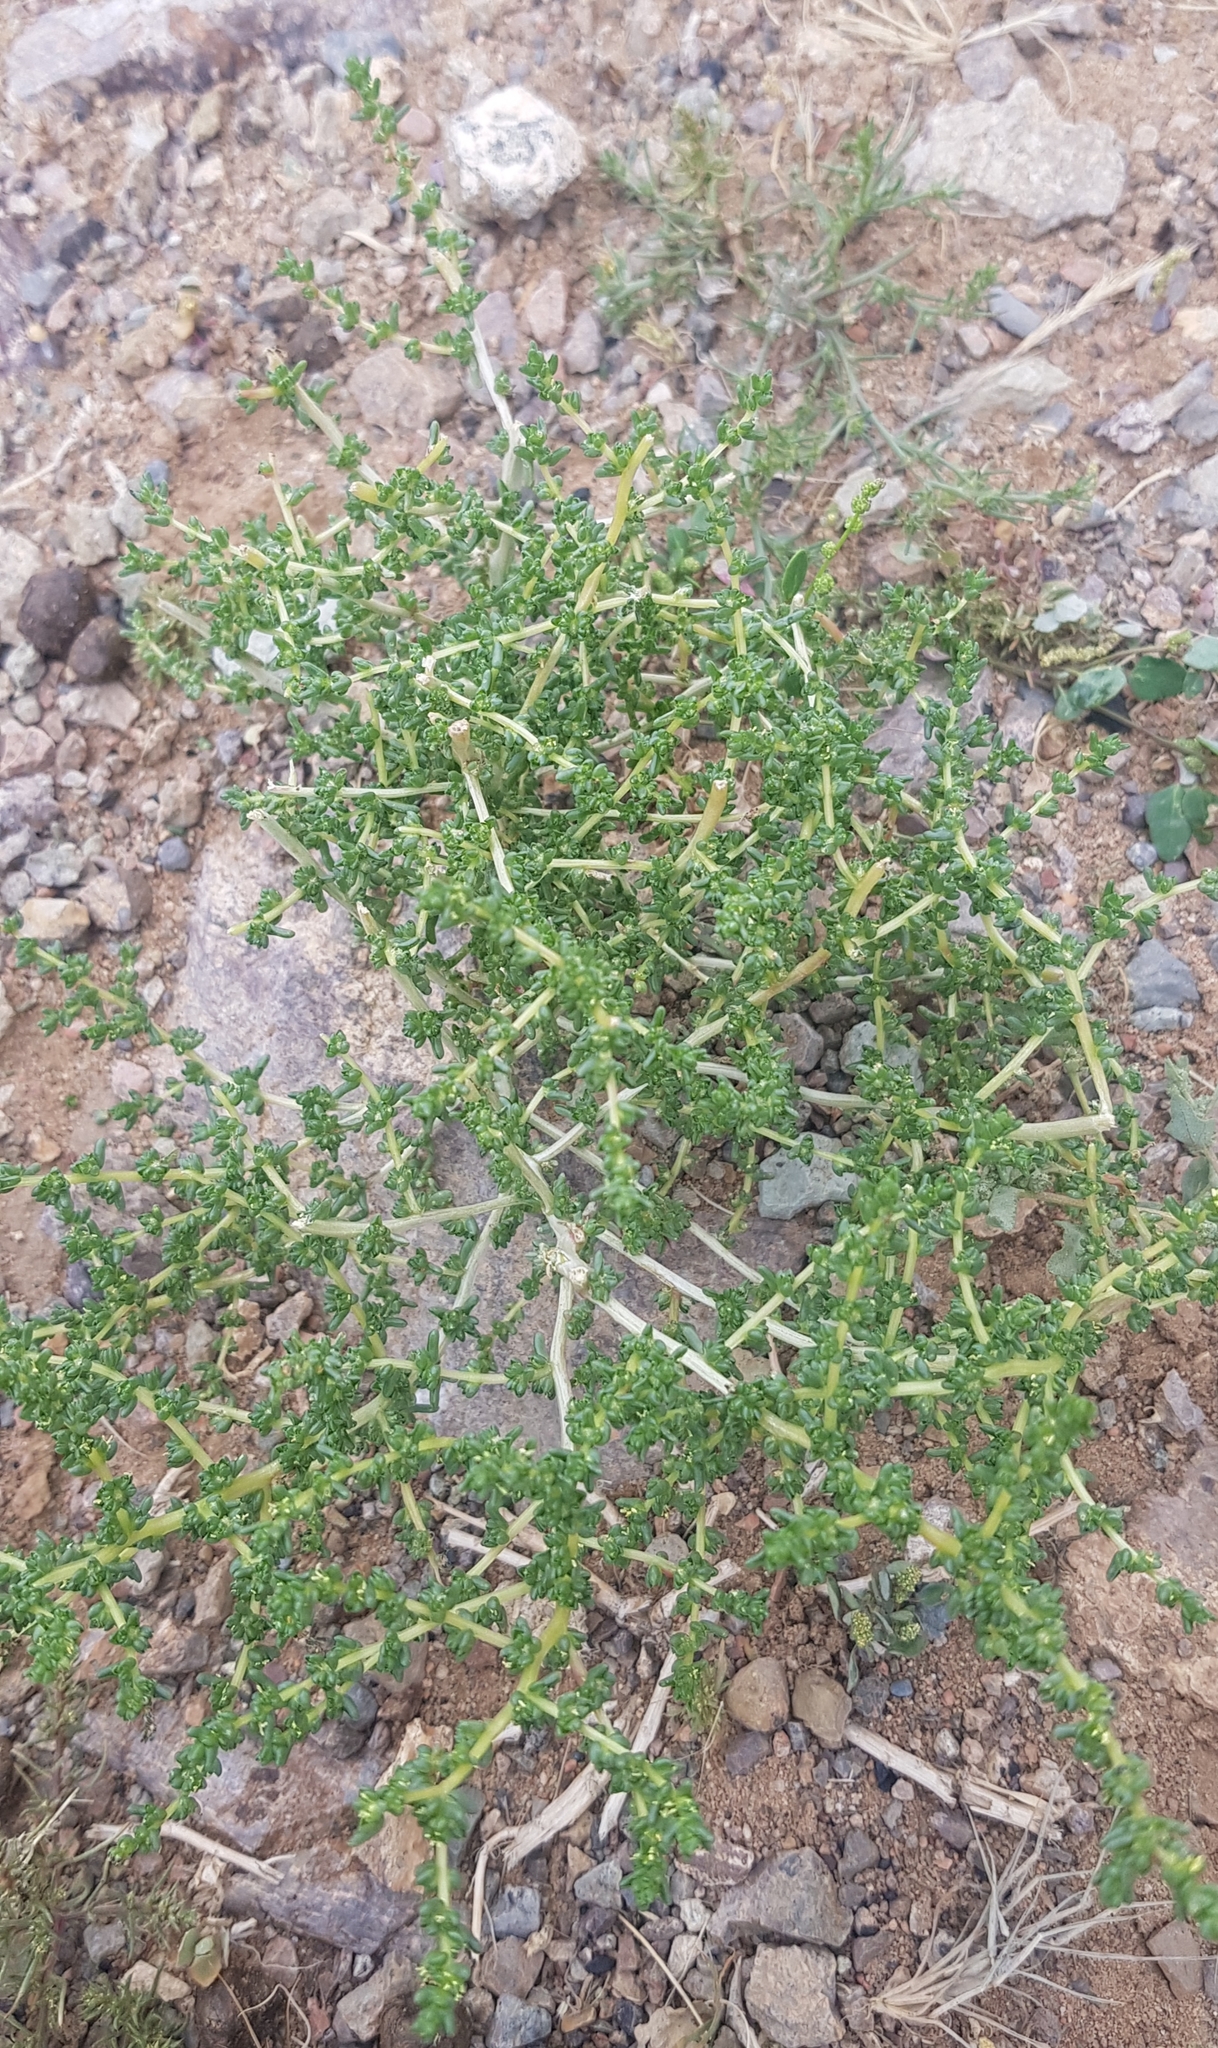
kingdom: Plantae
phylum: Tracheophyta
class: Magnoliopsida
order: Caryophyllales
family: Amaranthaceae
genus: Halogeton
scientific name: Halogeton arachnoides
